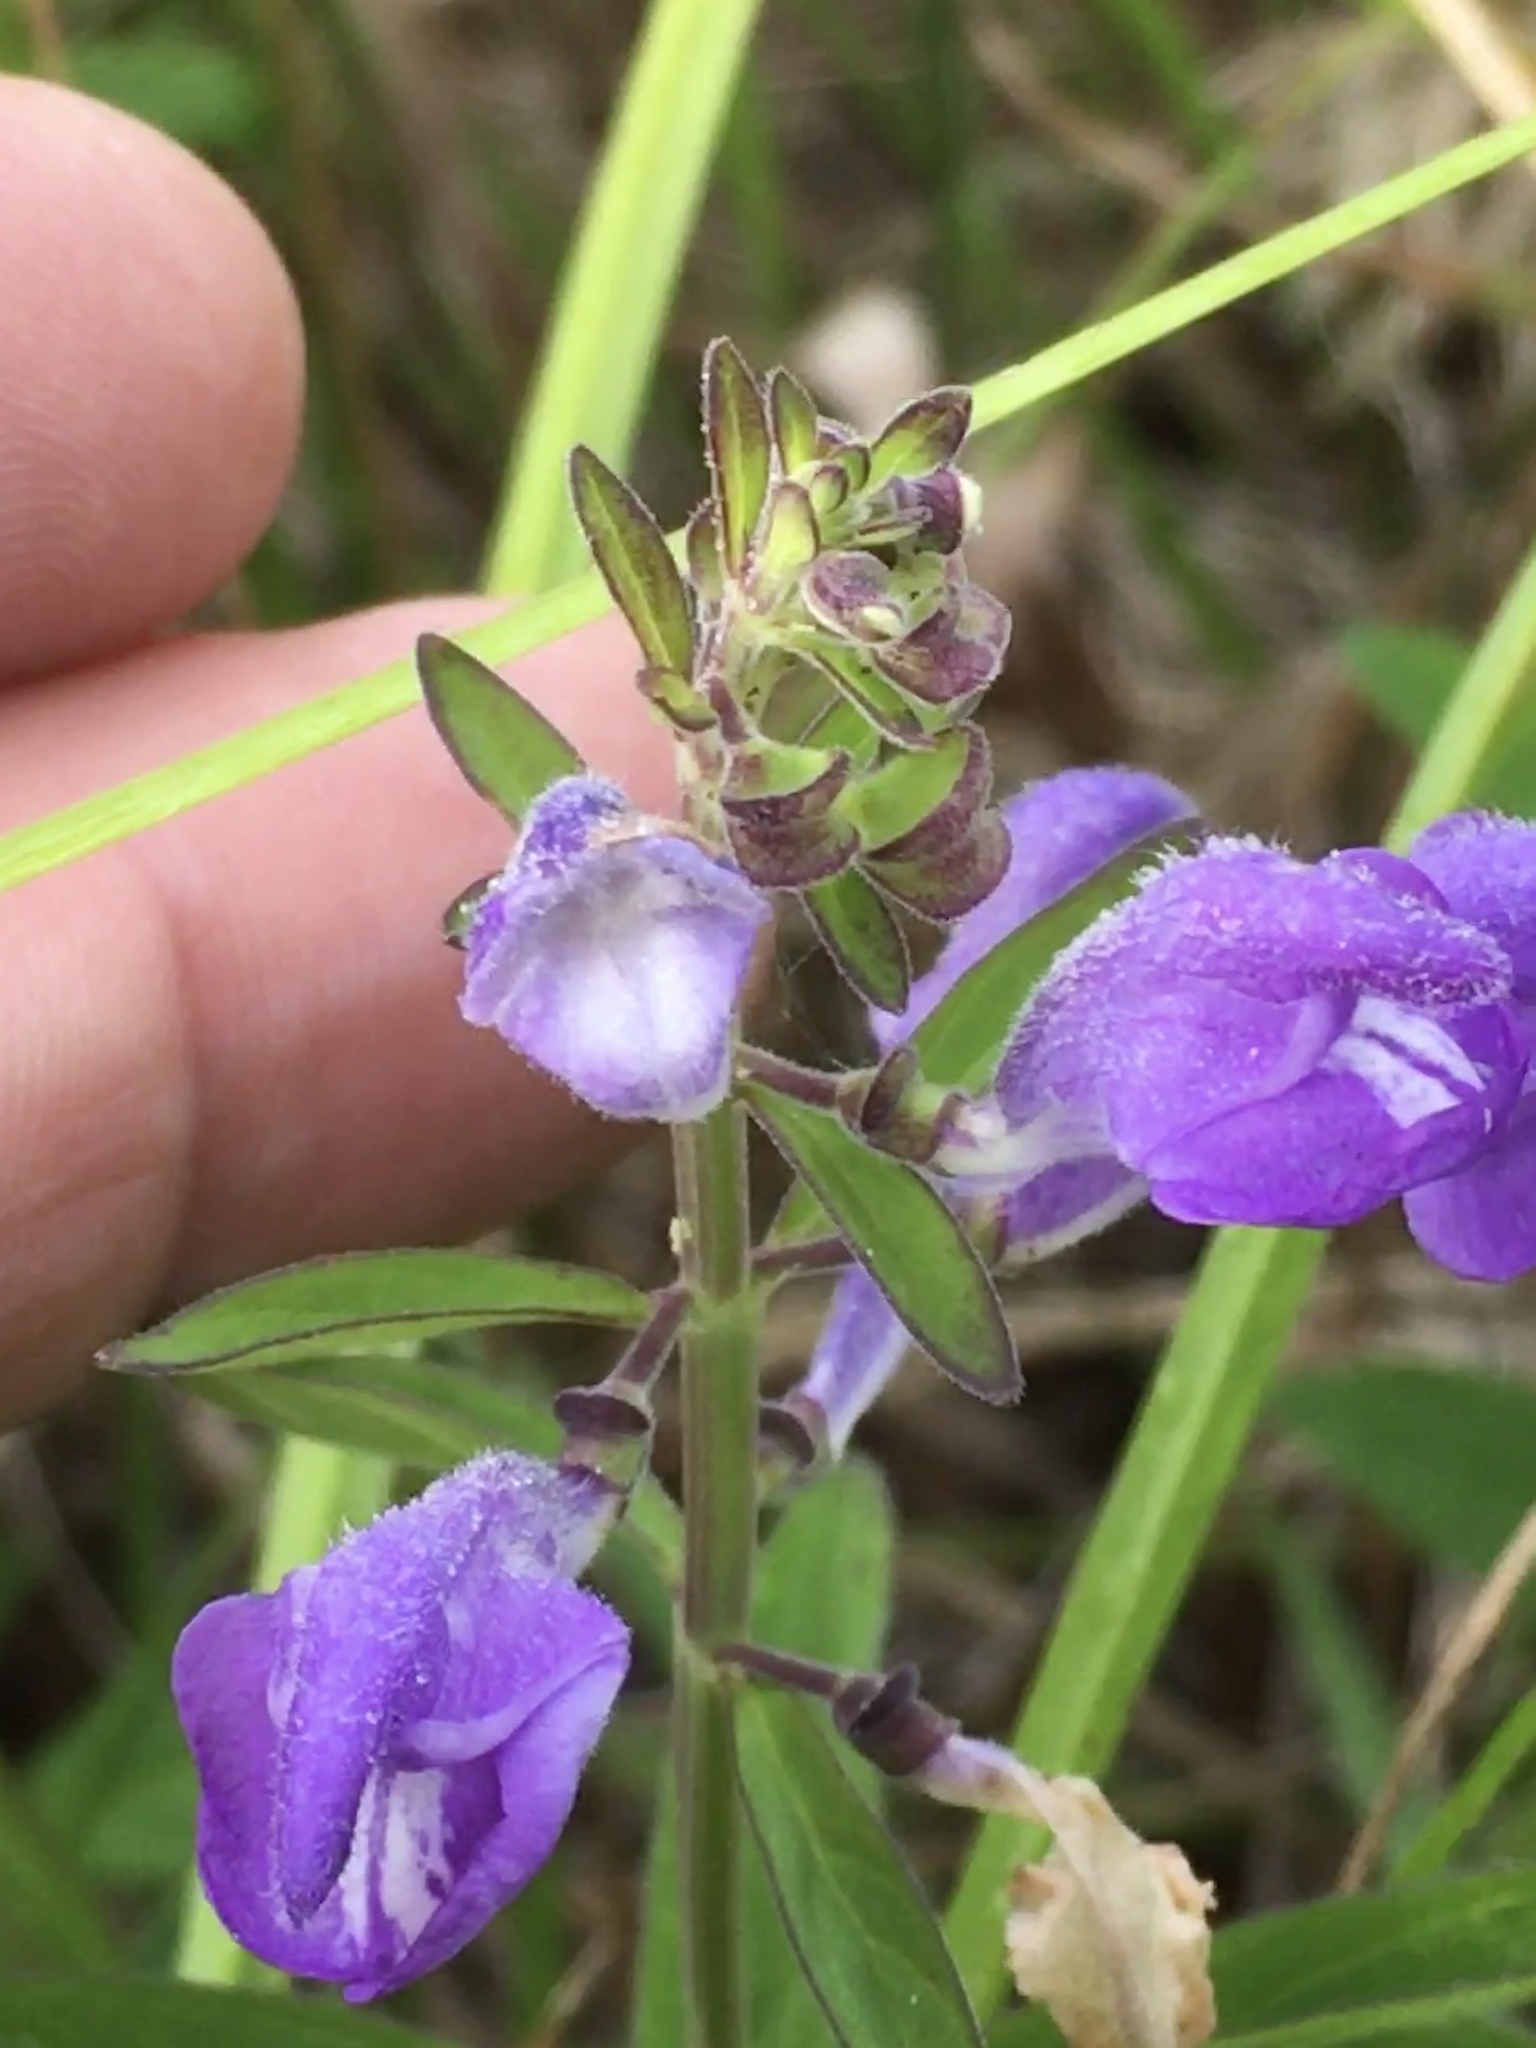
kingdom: Plantae
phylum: Tracheophyta
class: Magnoliopsida
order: Lamiales
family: Lamiaceae
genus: Scutellaria
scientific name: Scutellaria integrifolia
